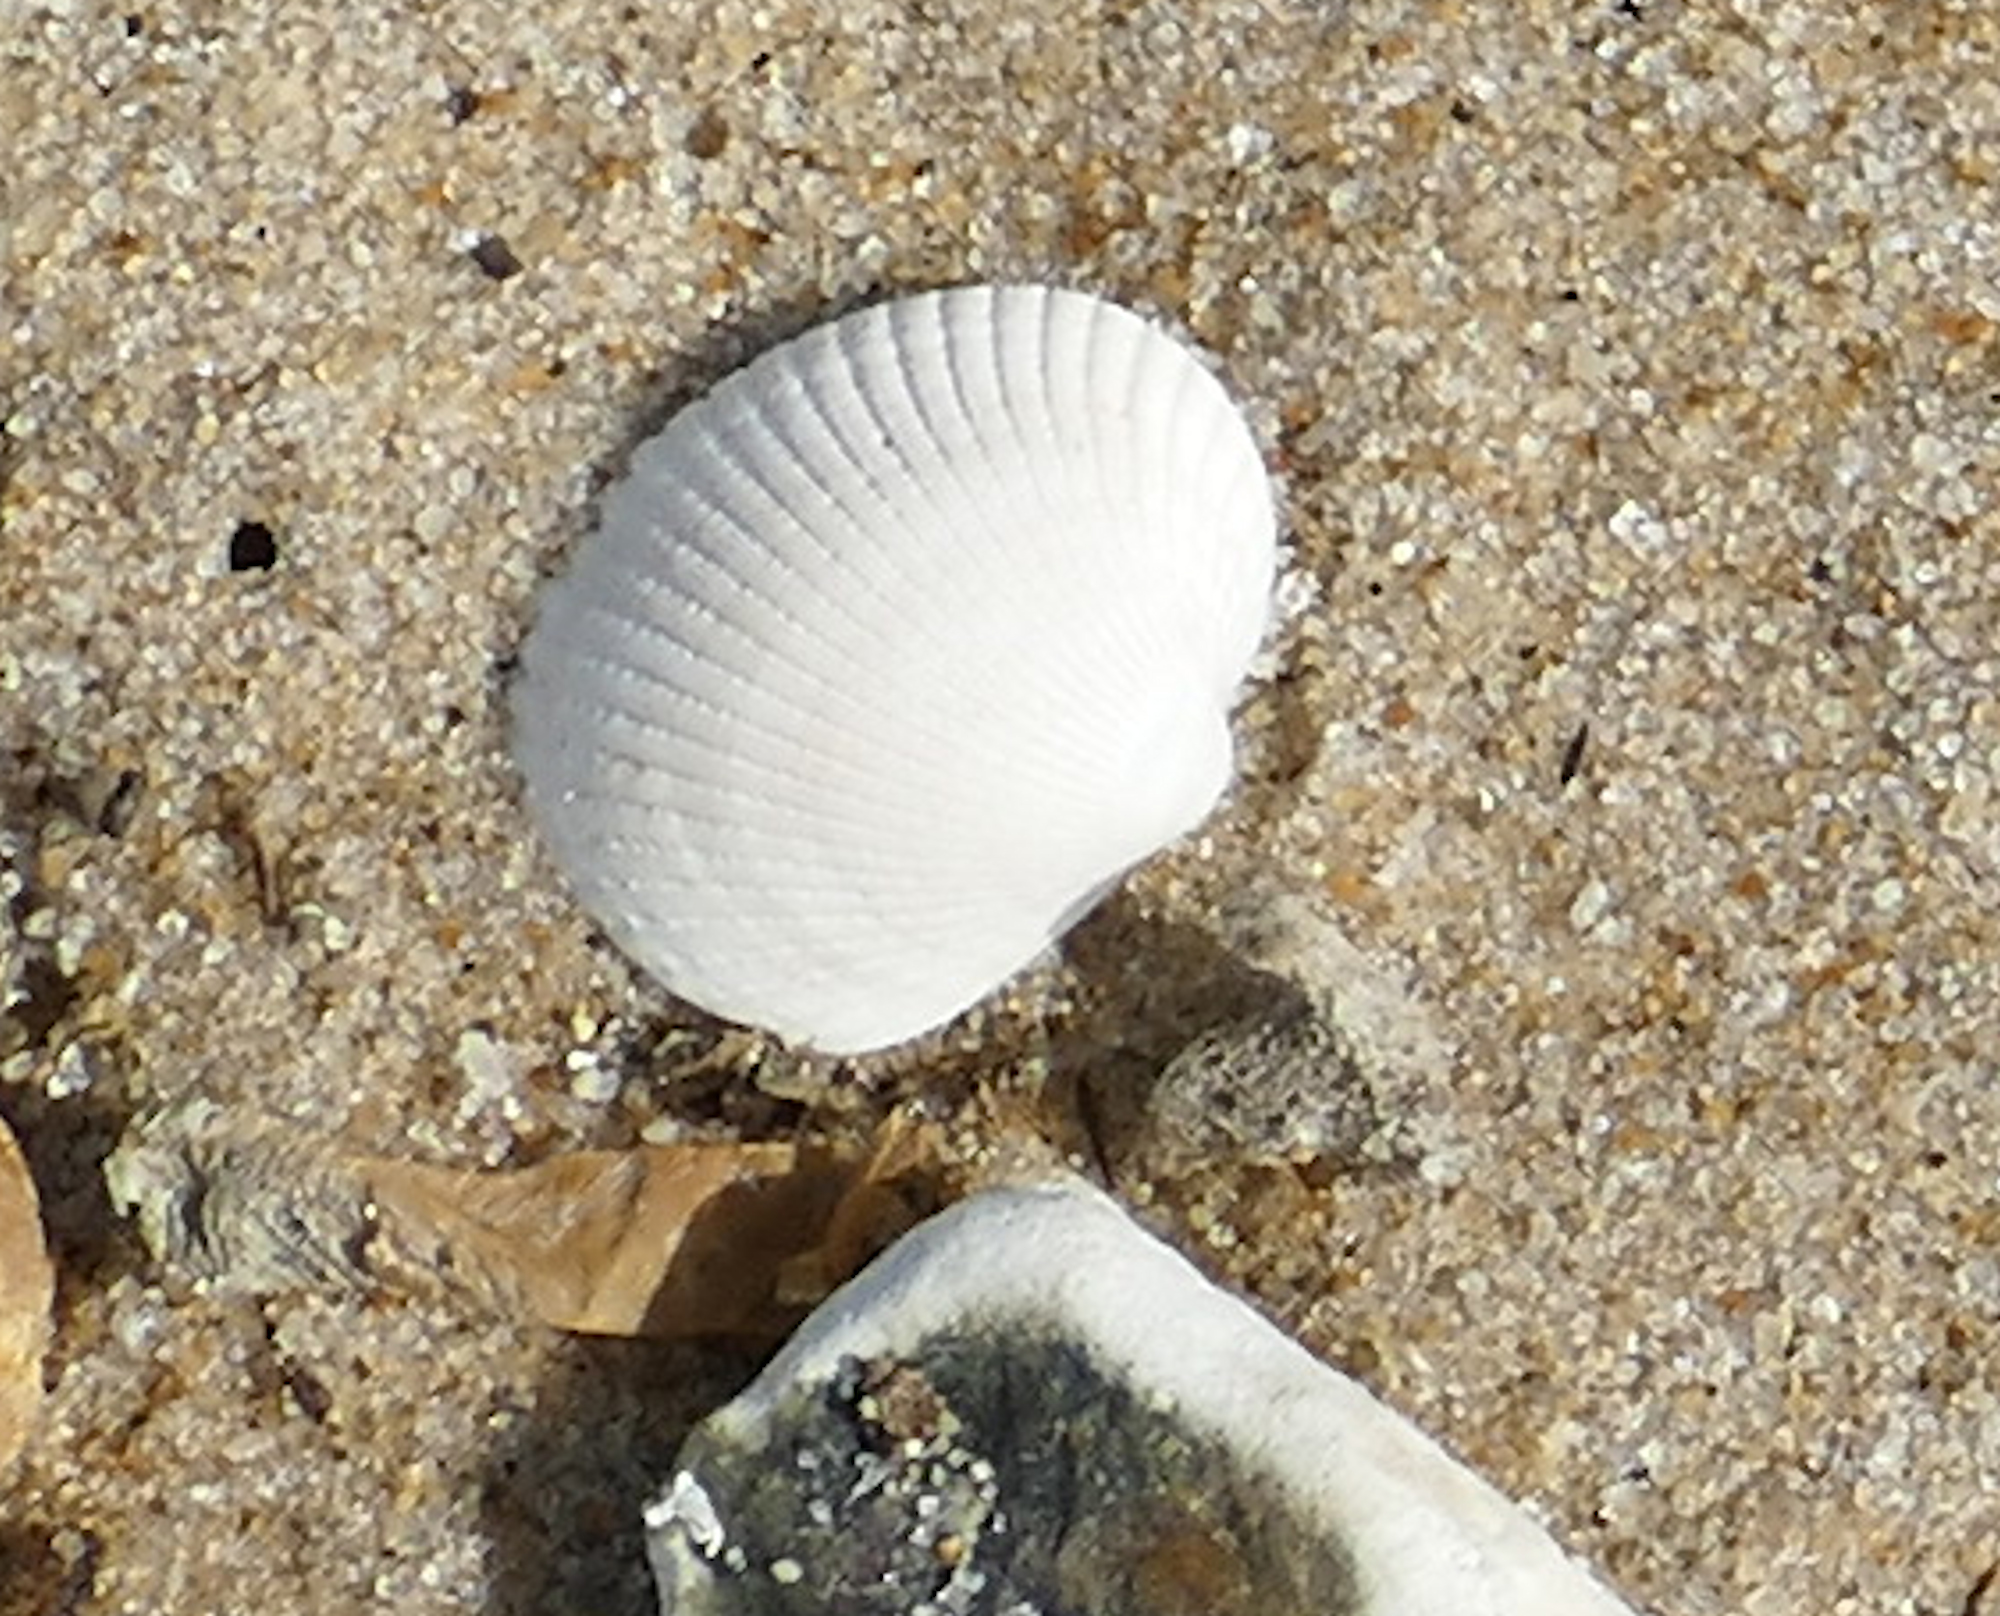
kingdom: Animalia
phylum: Mollusca
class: Bivalvia
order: Arcida
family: Arcidae
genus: Lunarca
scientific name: Lunarca ovalis
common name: Blood ark
